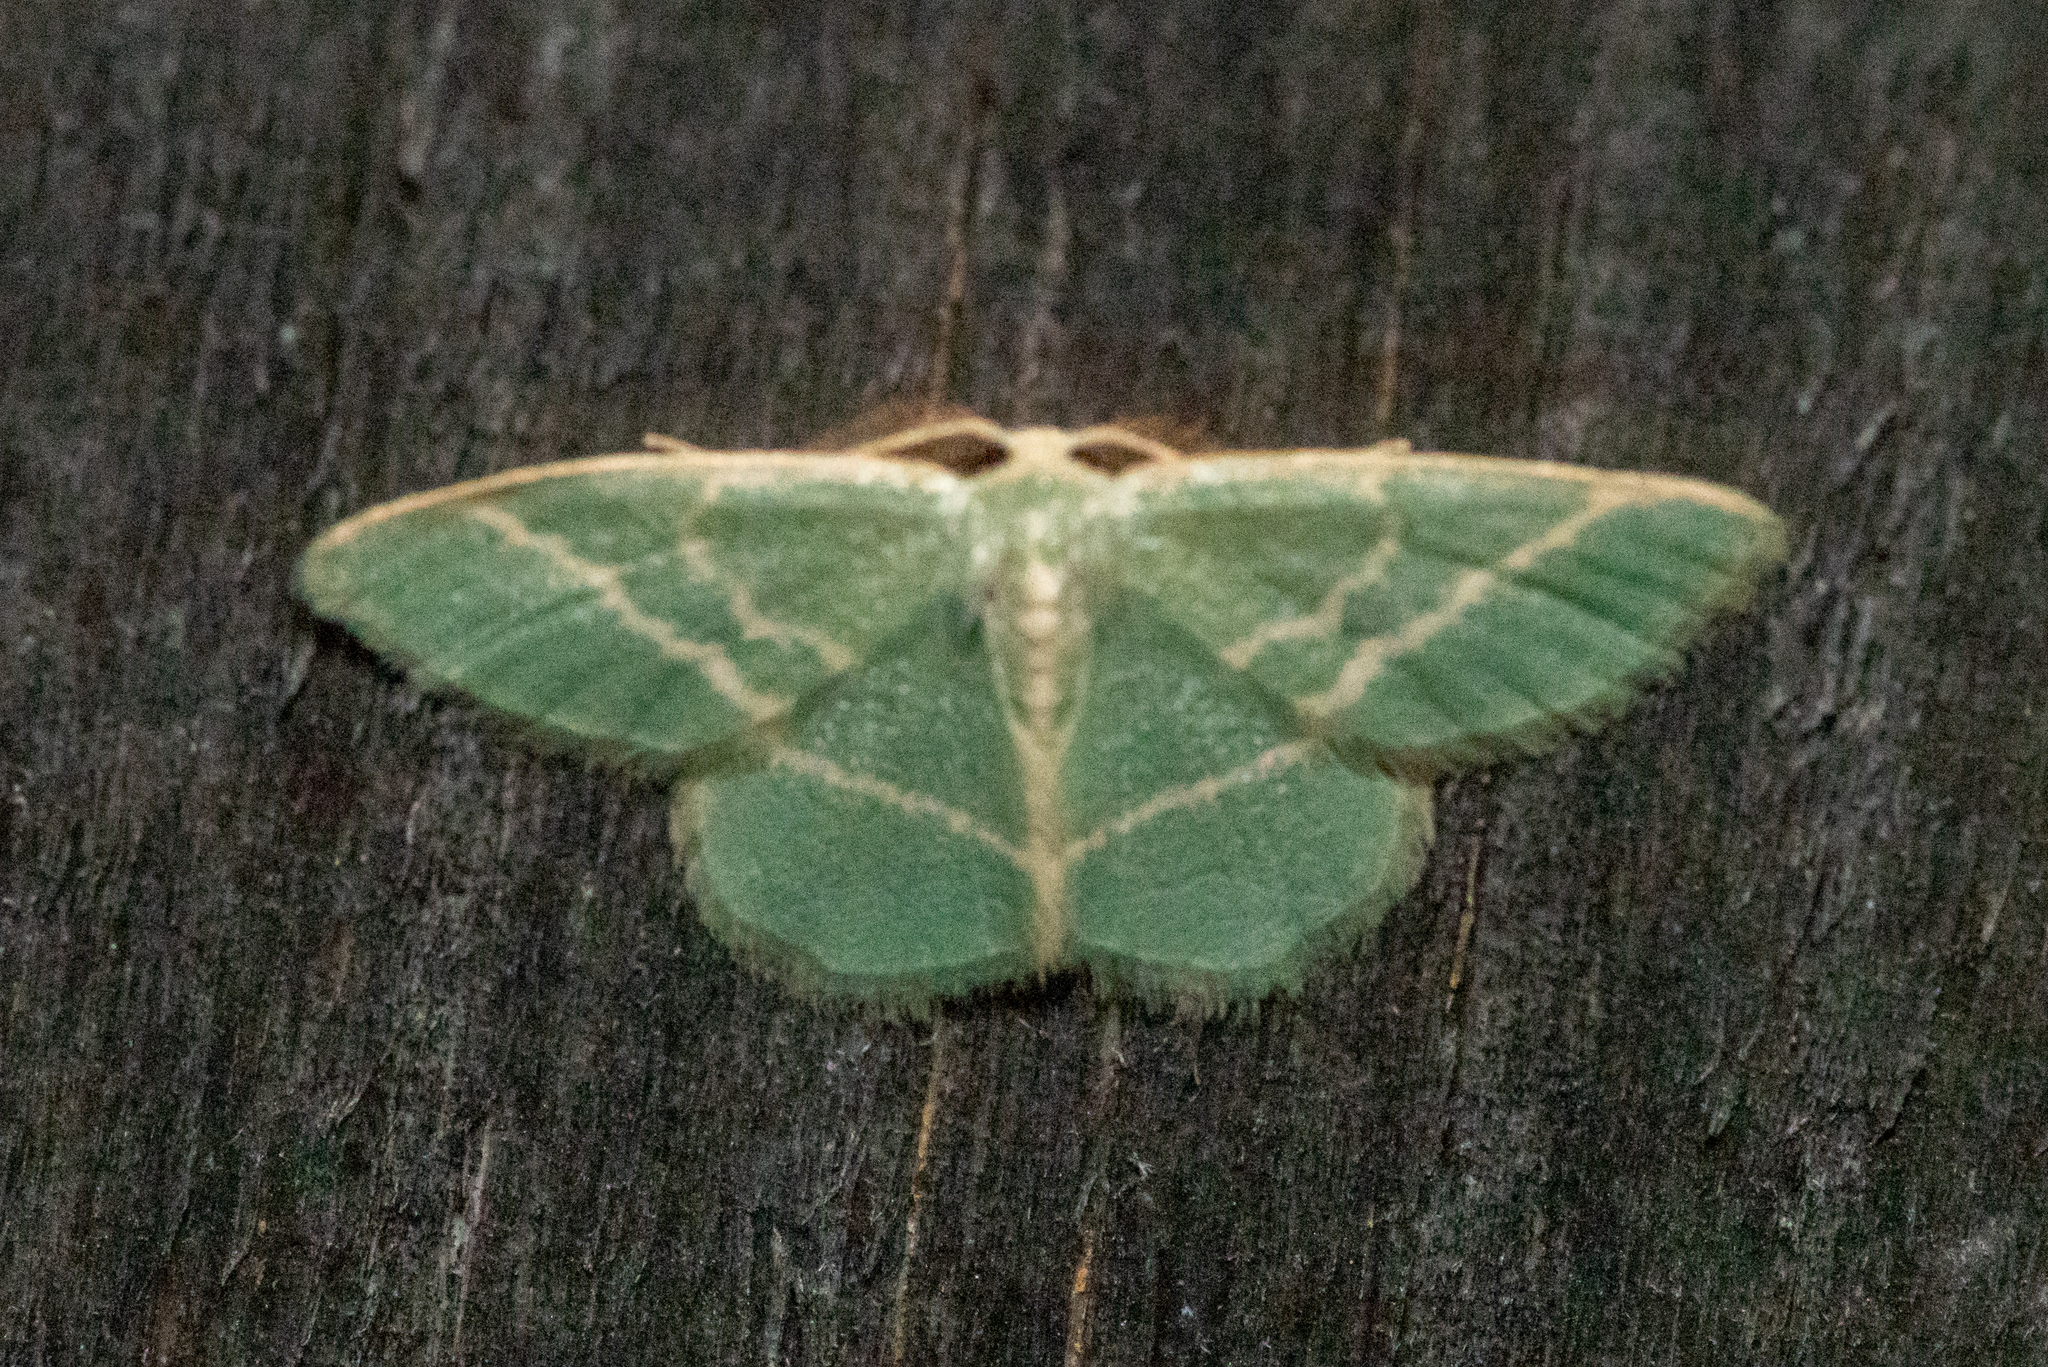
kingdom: Animalia
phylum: Arthropoda
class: Insecta
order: Lepidoptera
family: Geometridae
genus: Chlorochlamys
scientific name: Chlorochlamys chloroleucaria
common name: Blackberry looper
